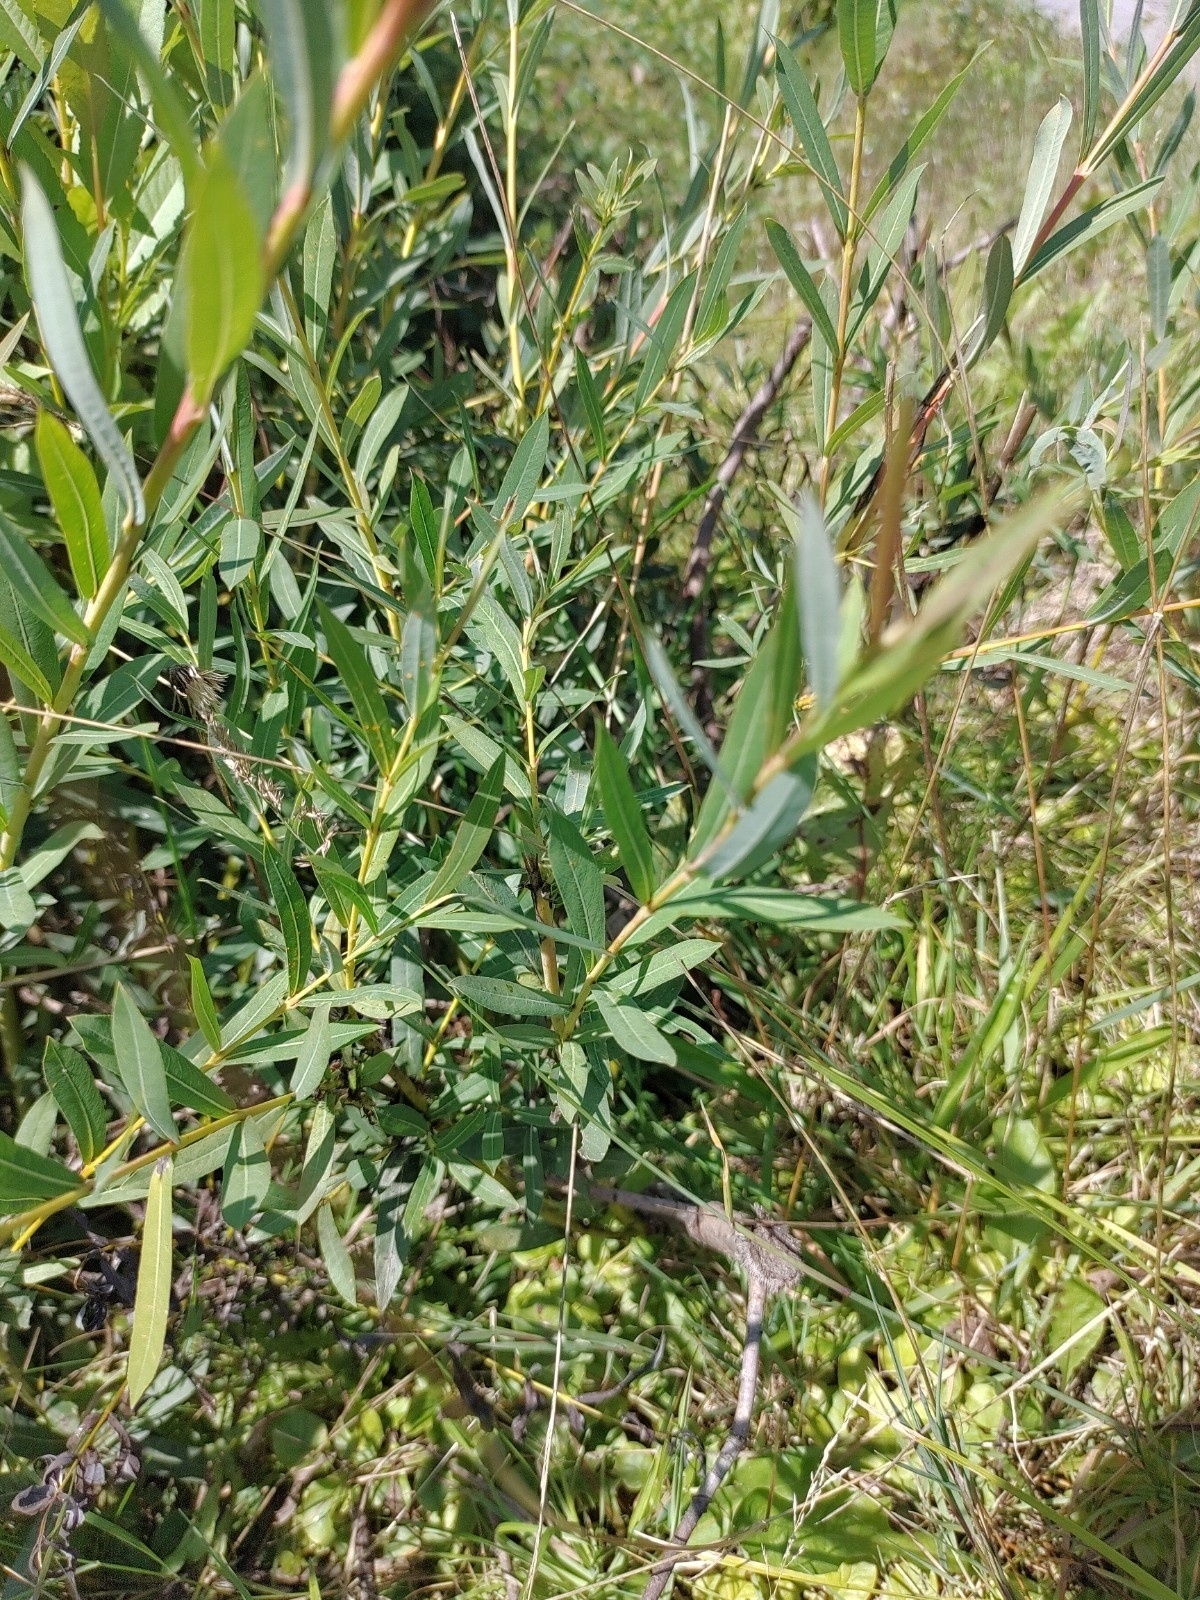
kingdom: Plantae
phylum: Tracheophyta
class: Magnoliopsida
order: Malpighiales
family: Salicaceae
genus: Salix
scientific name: Salix purpurea
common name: Purple willow
